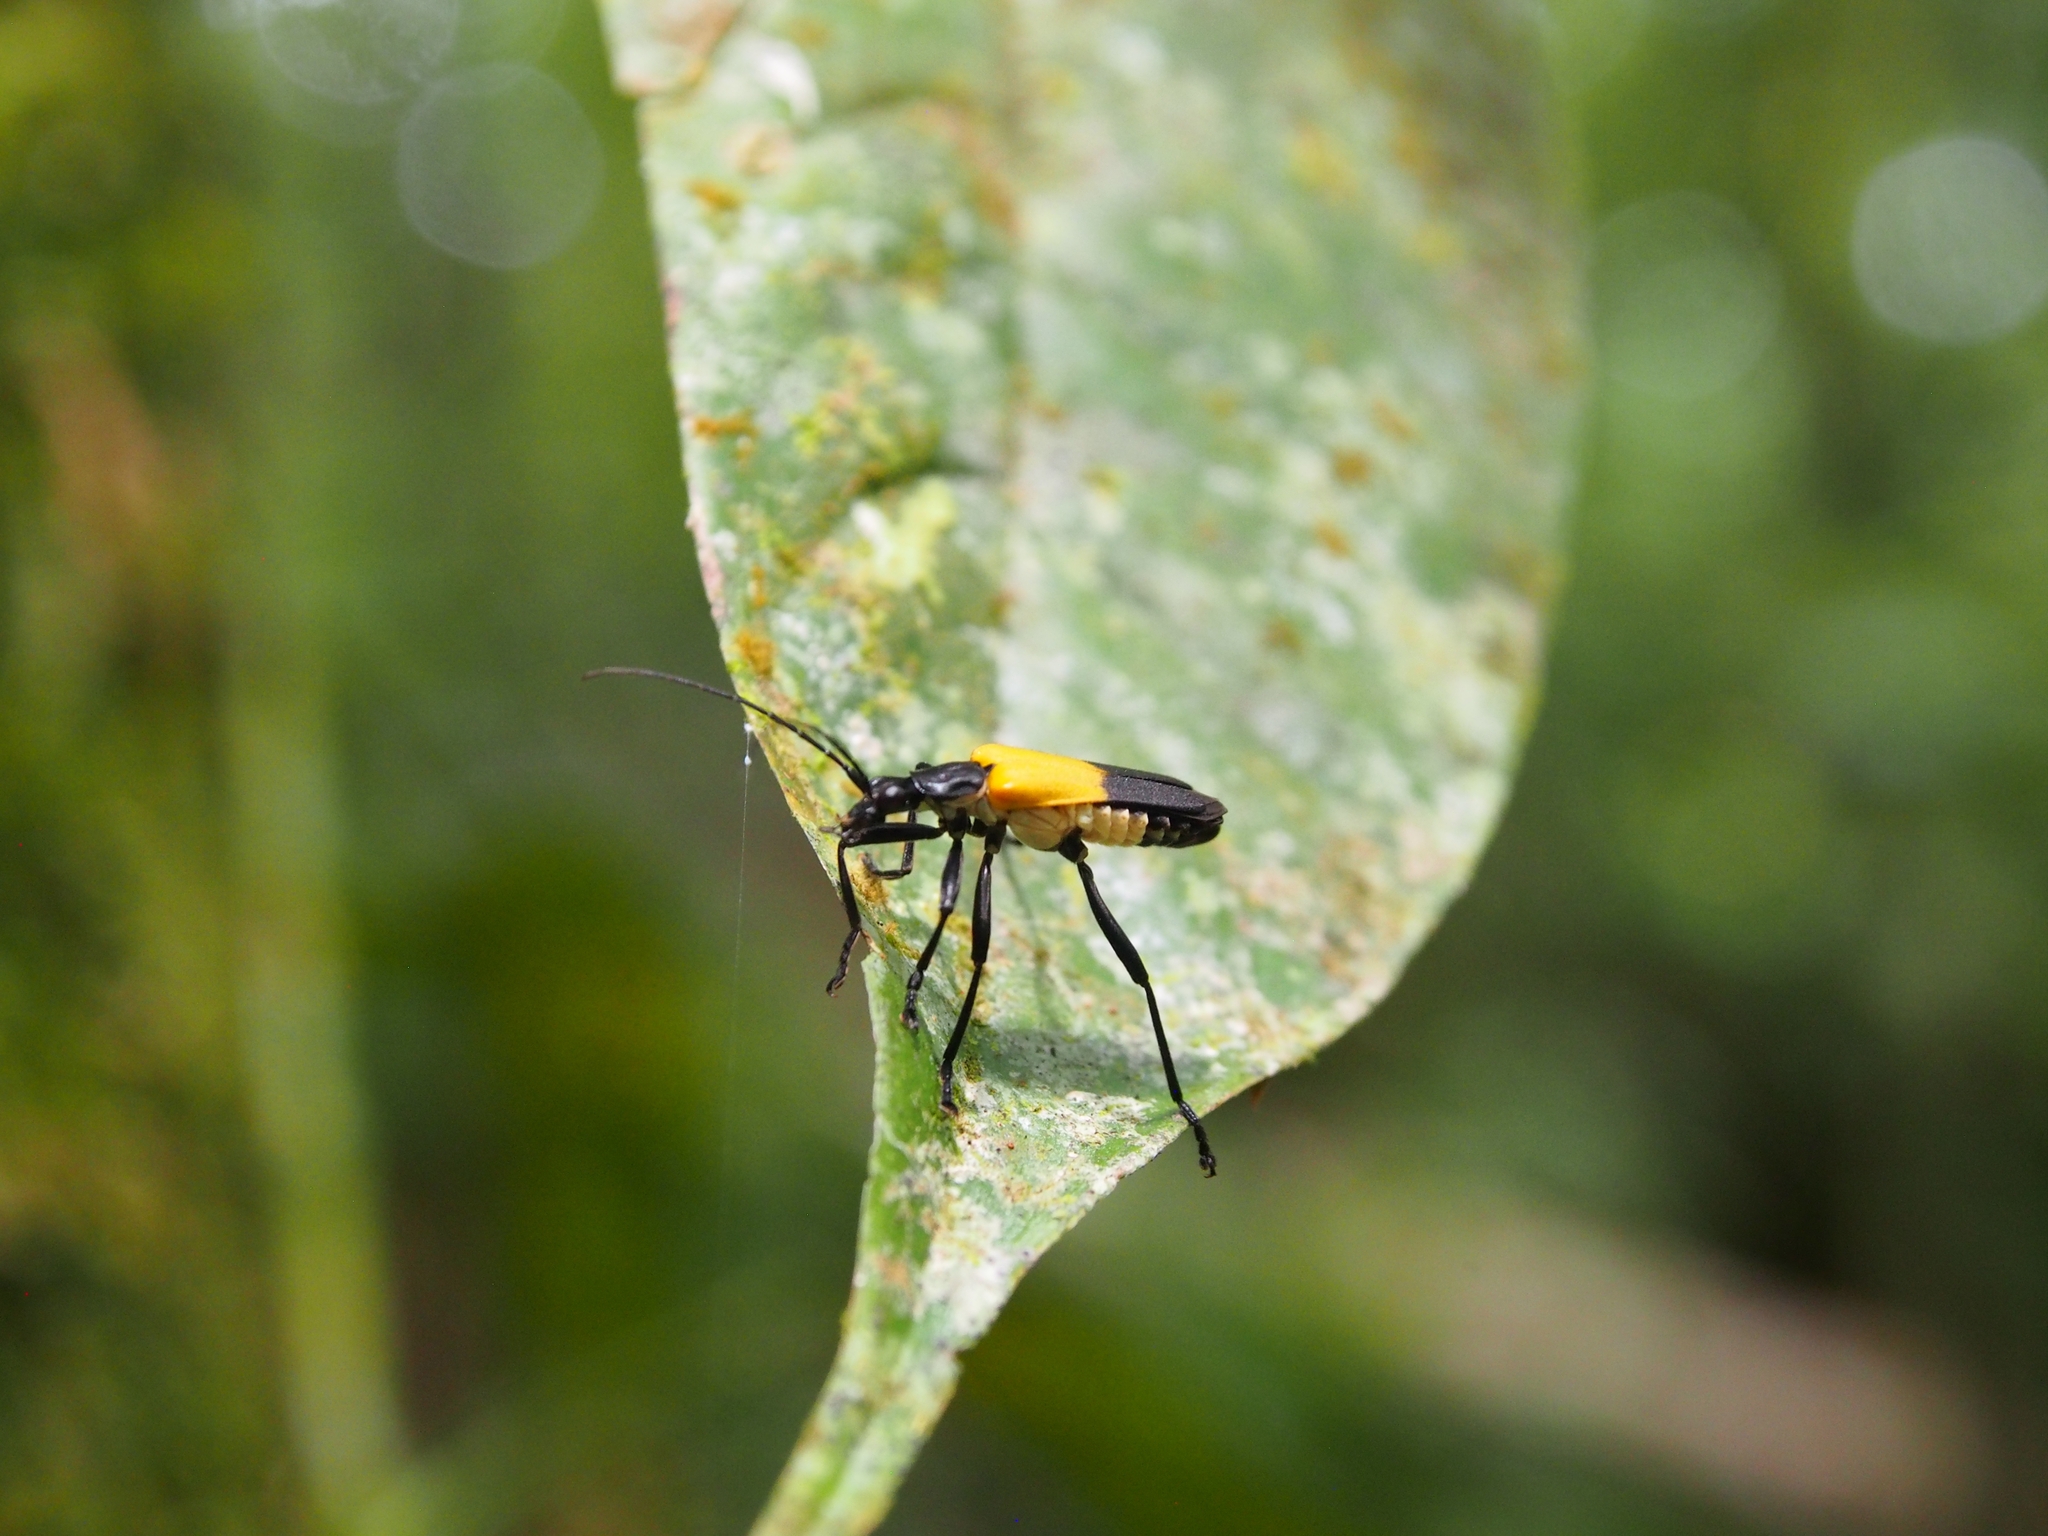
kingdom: Animalia
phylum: Arthropoda
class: Insecta
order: Coleoptera
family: Cantharidae
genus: Chauliognathus
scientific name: Chauliognathus
